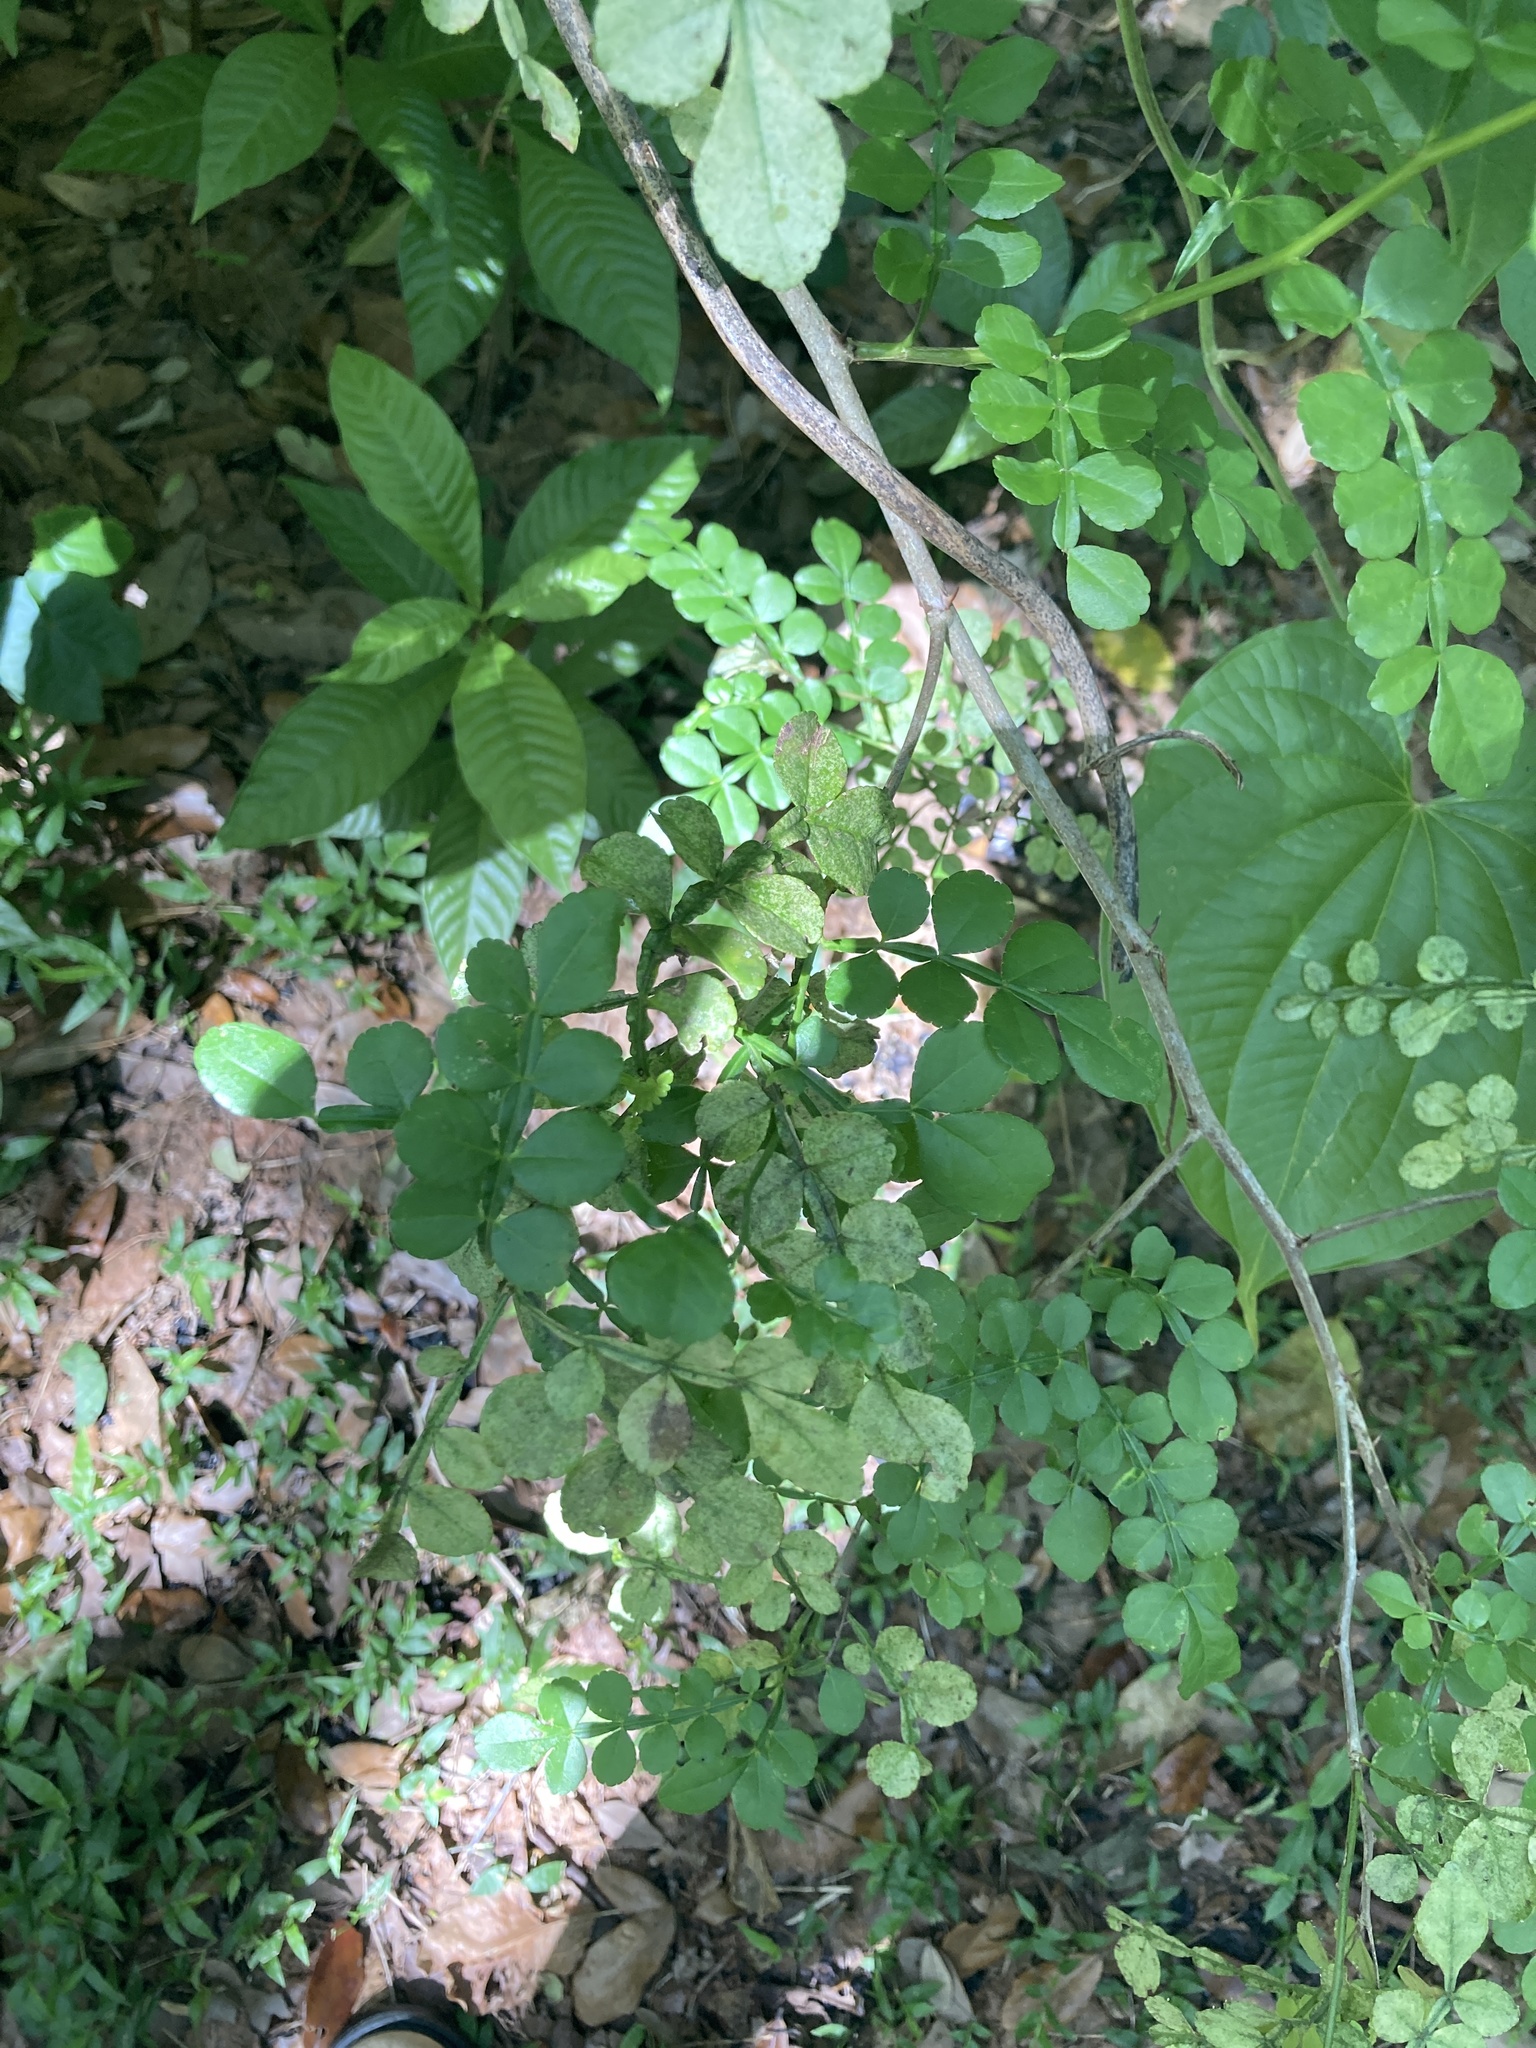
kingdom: Plantae
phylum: Tracheophyta
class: Magnoliopsida
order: Sapindales
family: Rutaceae
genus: Zanthoxylum
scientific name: Zanthoxylum fagara
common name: Lime prickly-ash
